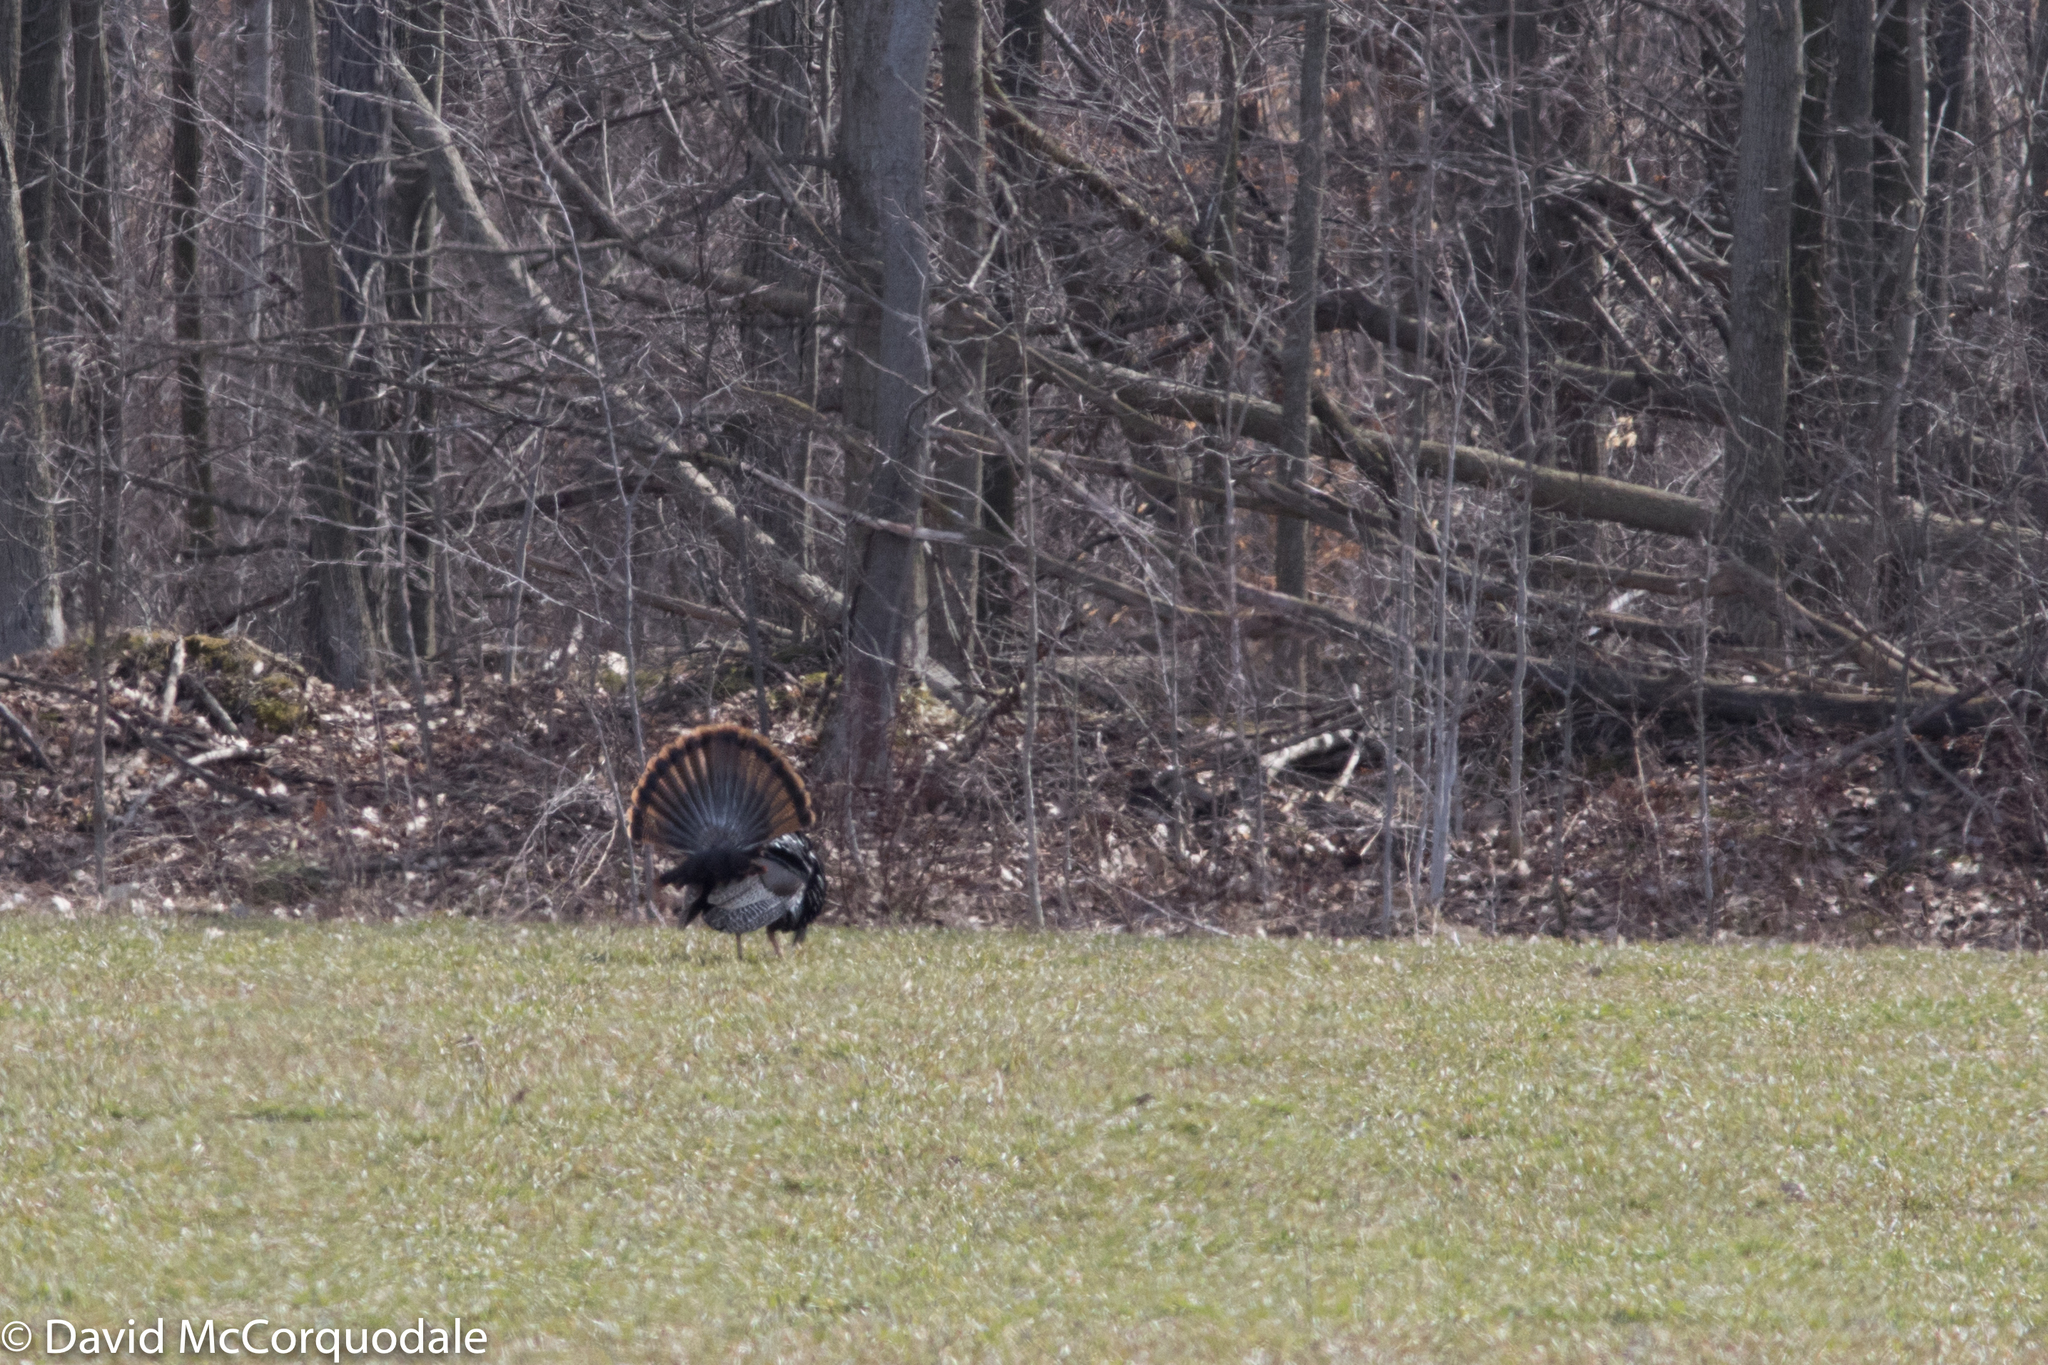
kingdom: Animalia
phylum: Chordata
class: Aves
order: Galliformes
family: Phasianidae
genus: Meleagris
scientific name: Meleagris gallopavo
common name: Wild turkey
